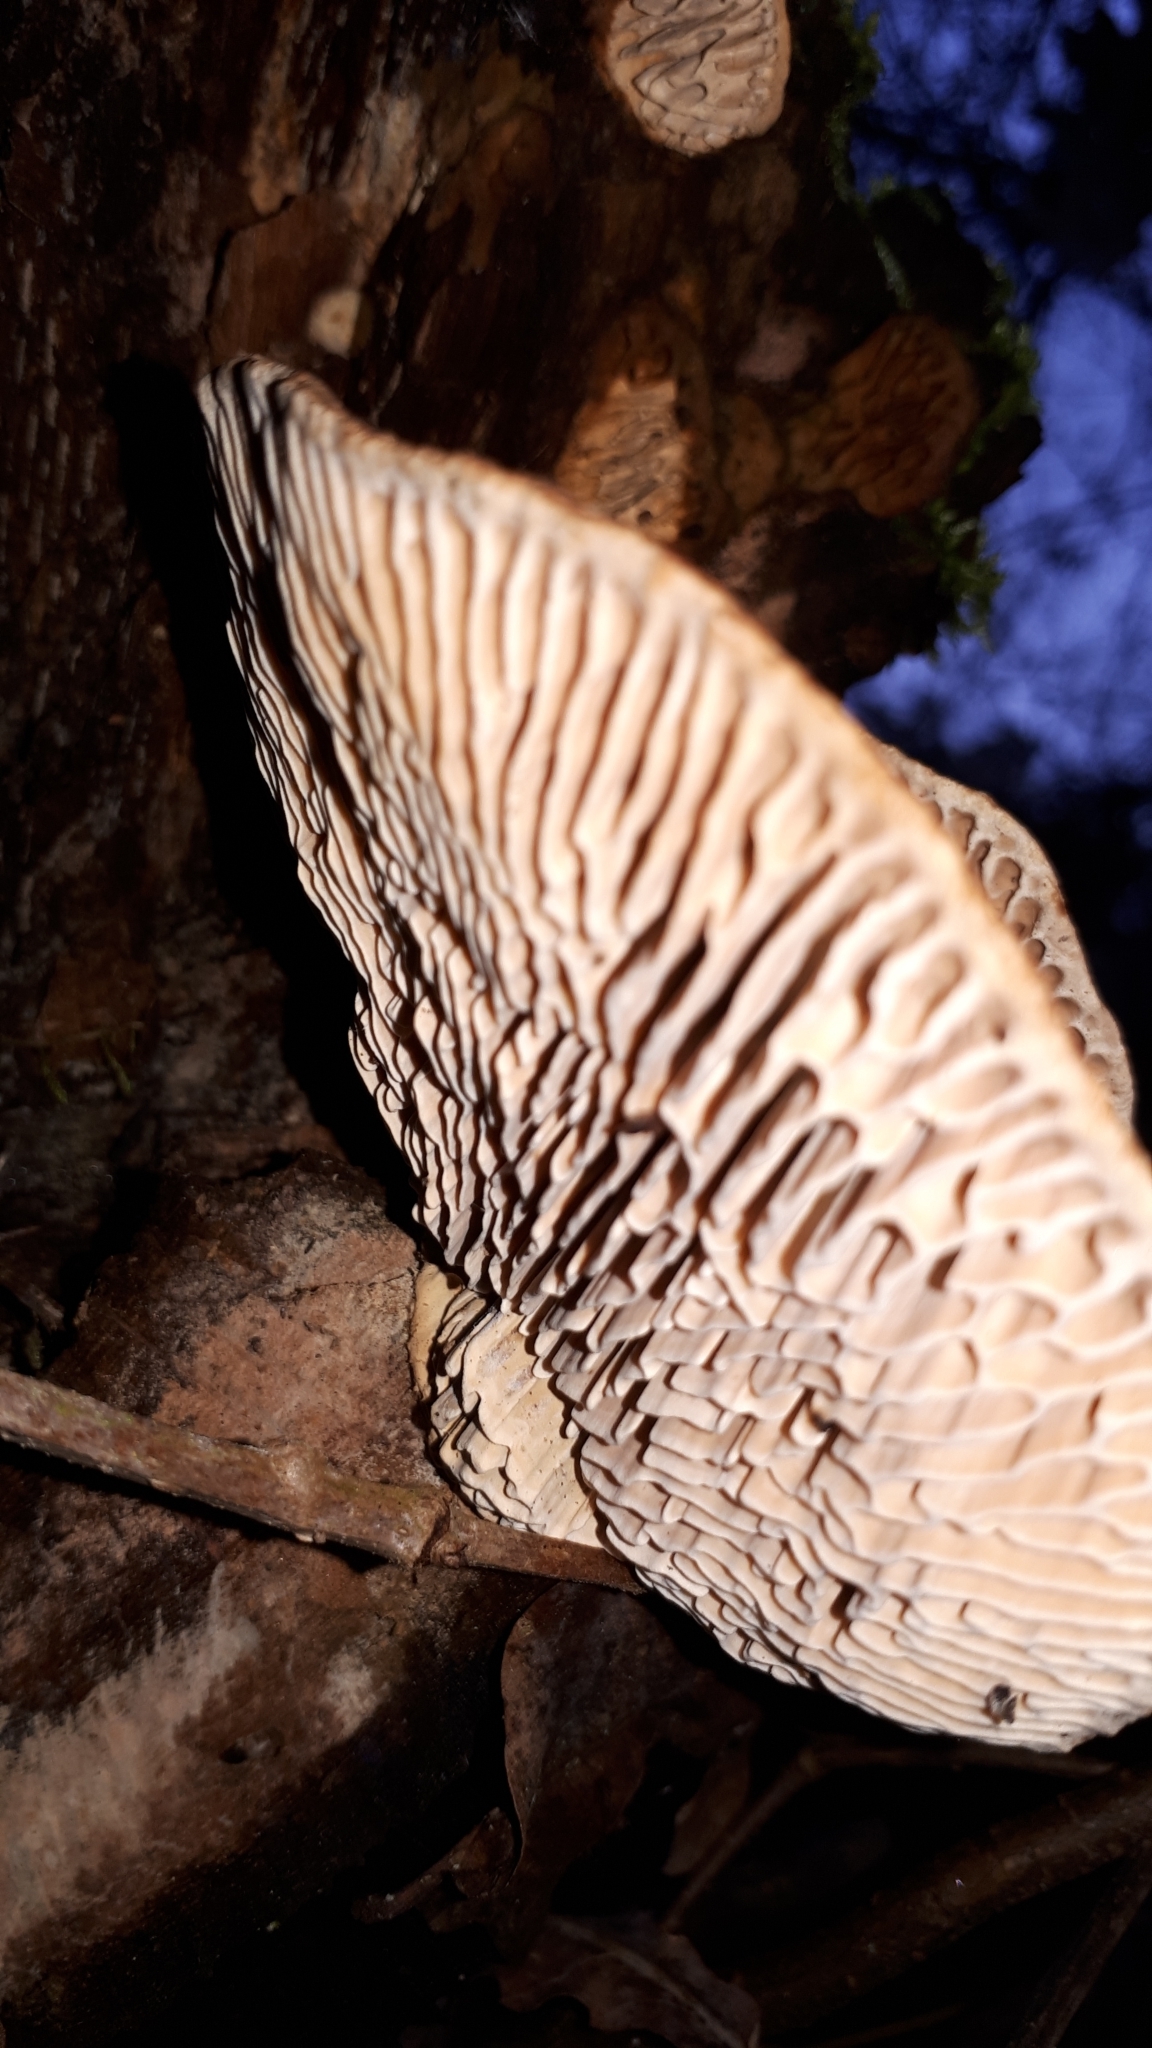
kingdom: Fungi
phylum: Basidiomycota
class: Agaricomycetes
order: Polyporales
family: Fomitopsidaceae
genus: Fomitopsis
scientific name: Fomitopsis
